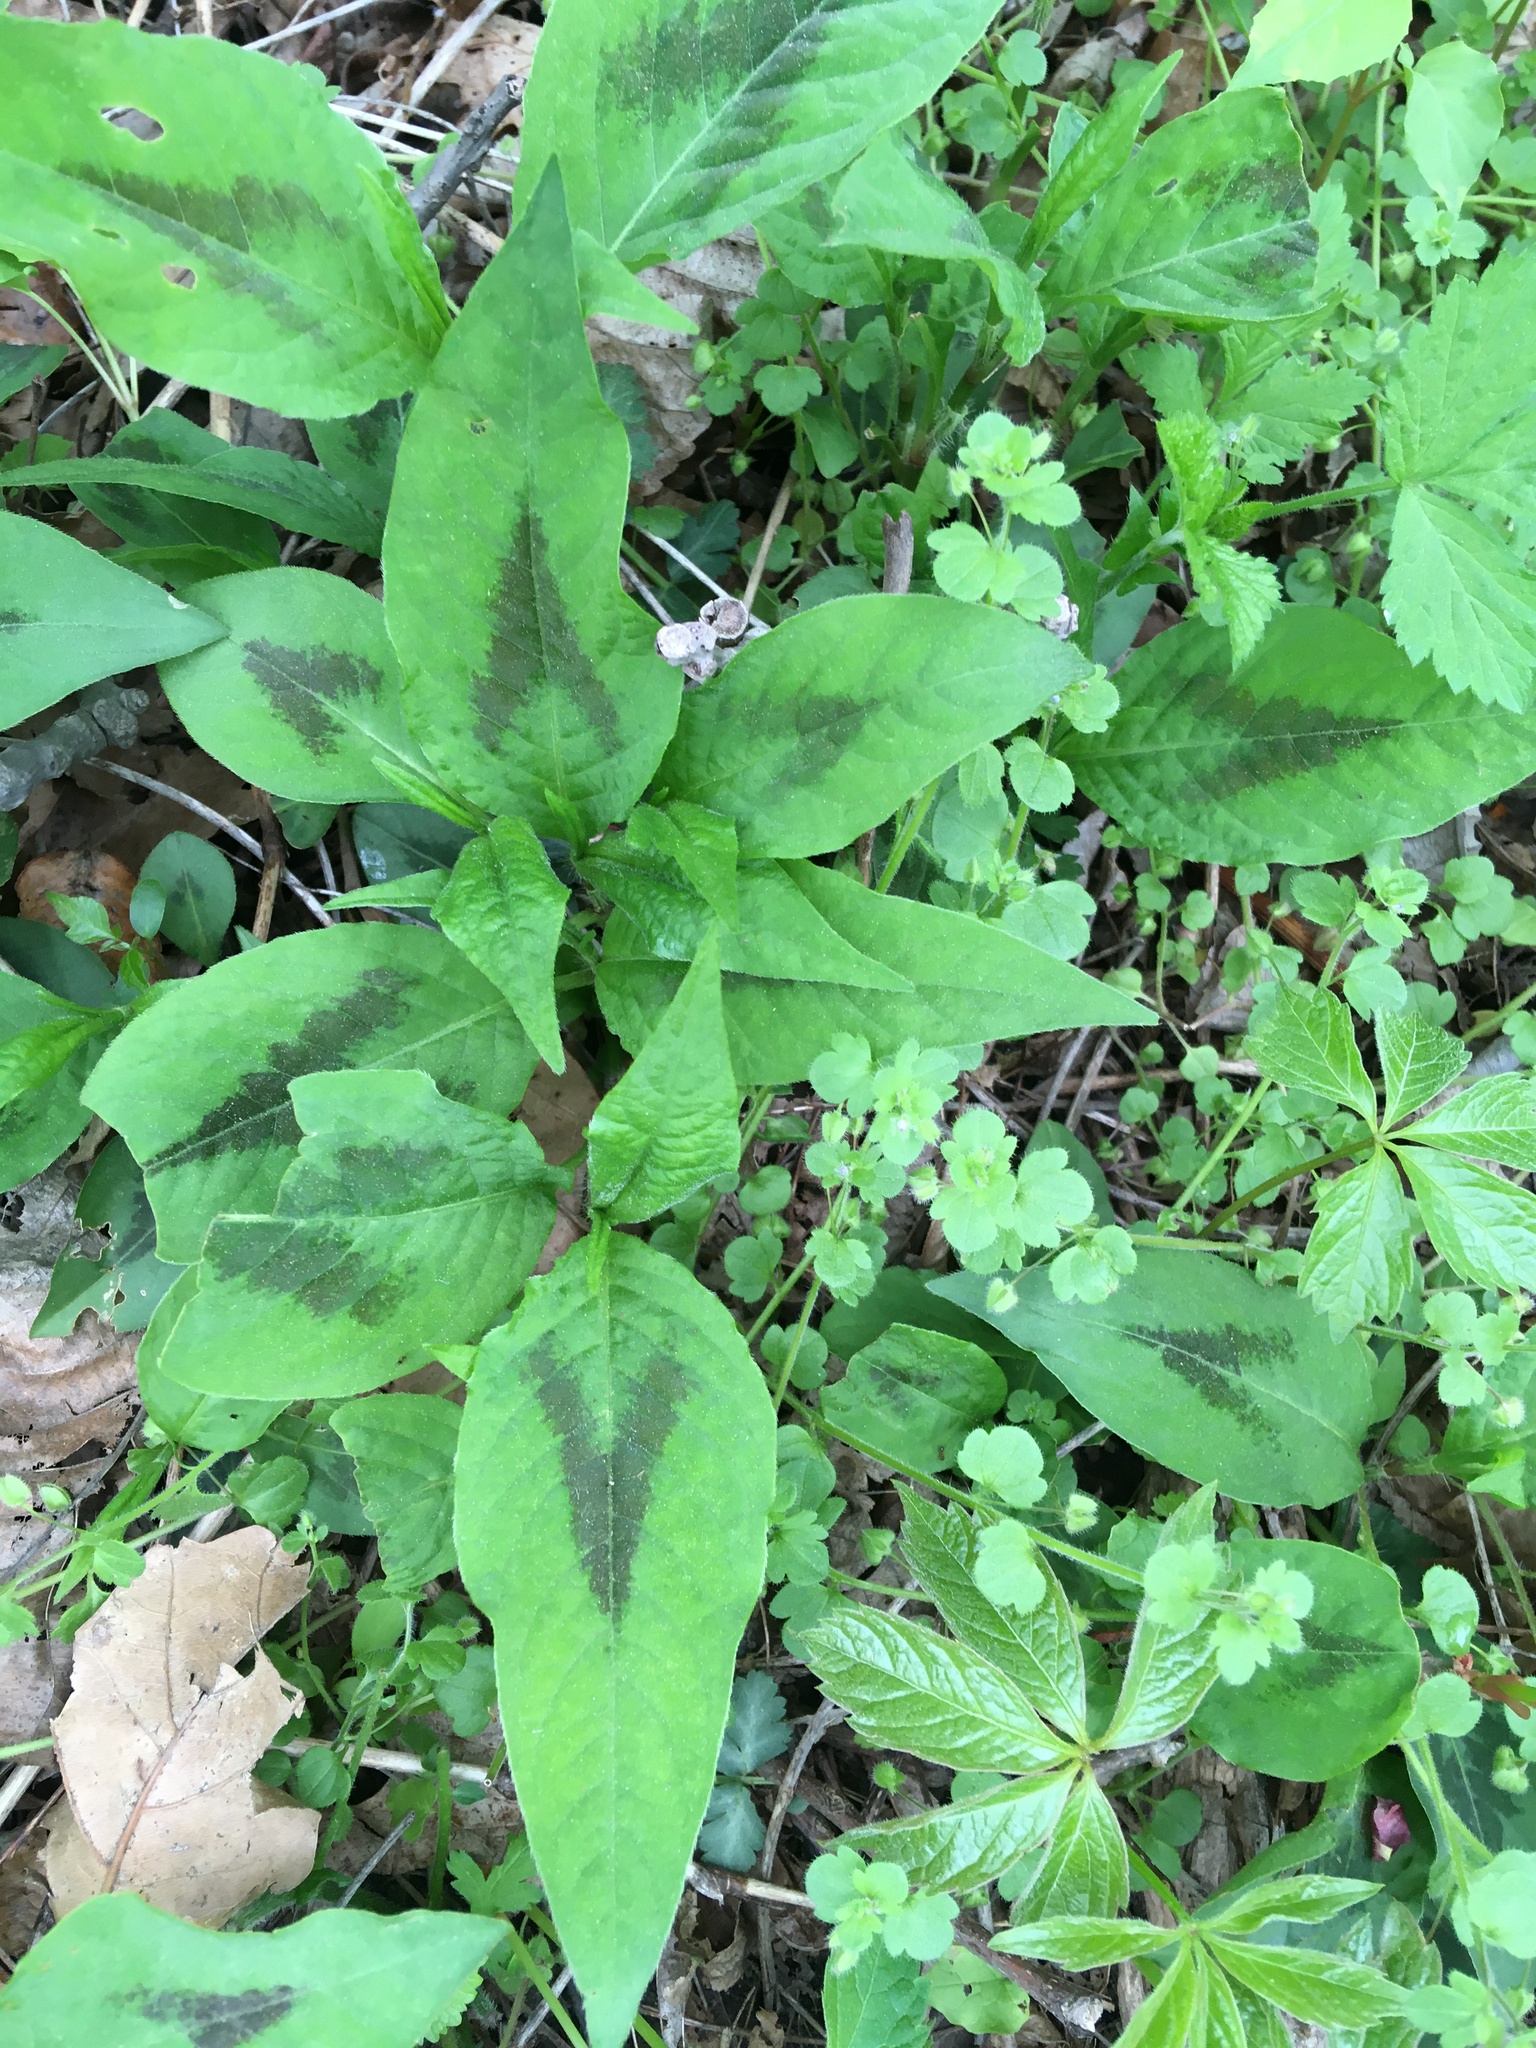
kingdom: Plantae
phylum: Tracheophyta
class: Magnoliopsida
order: Caryophyllales
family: Polygonaceae
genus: Persicaria
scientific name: Persicaria virginiana
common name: Jumpseed
